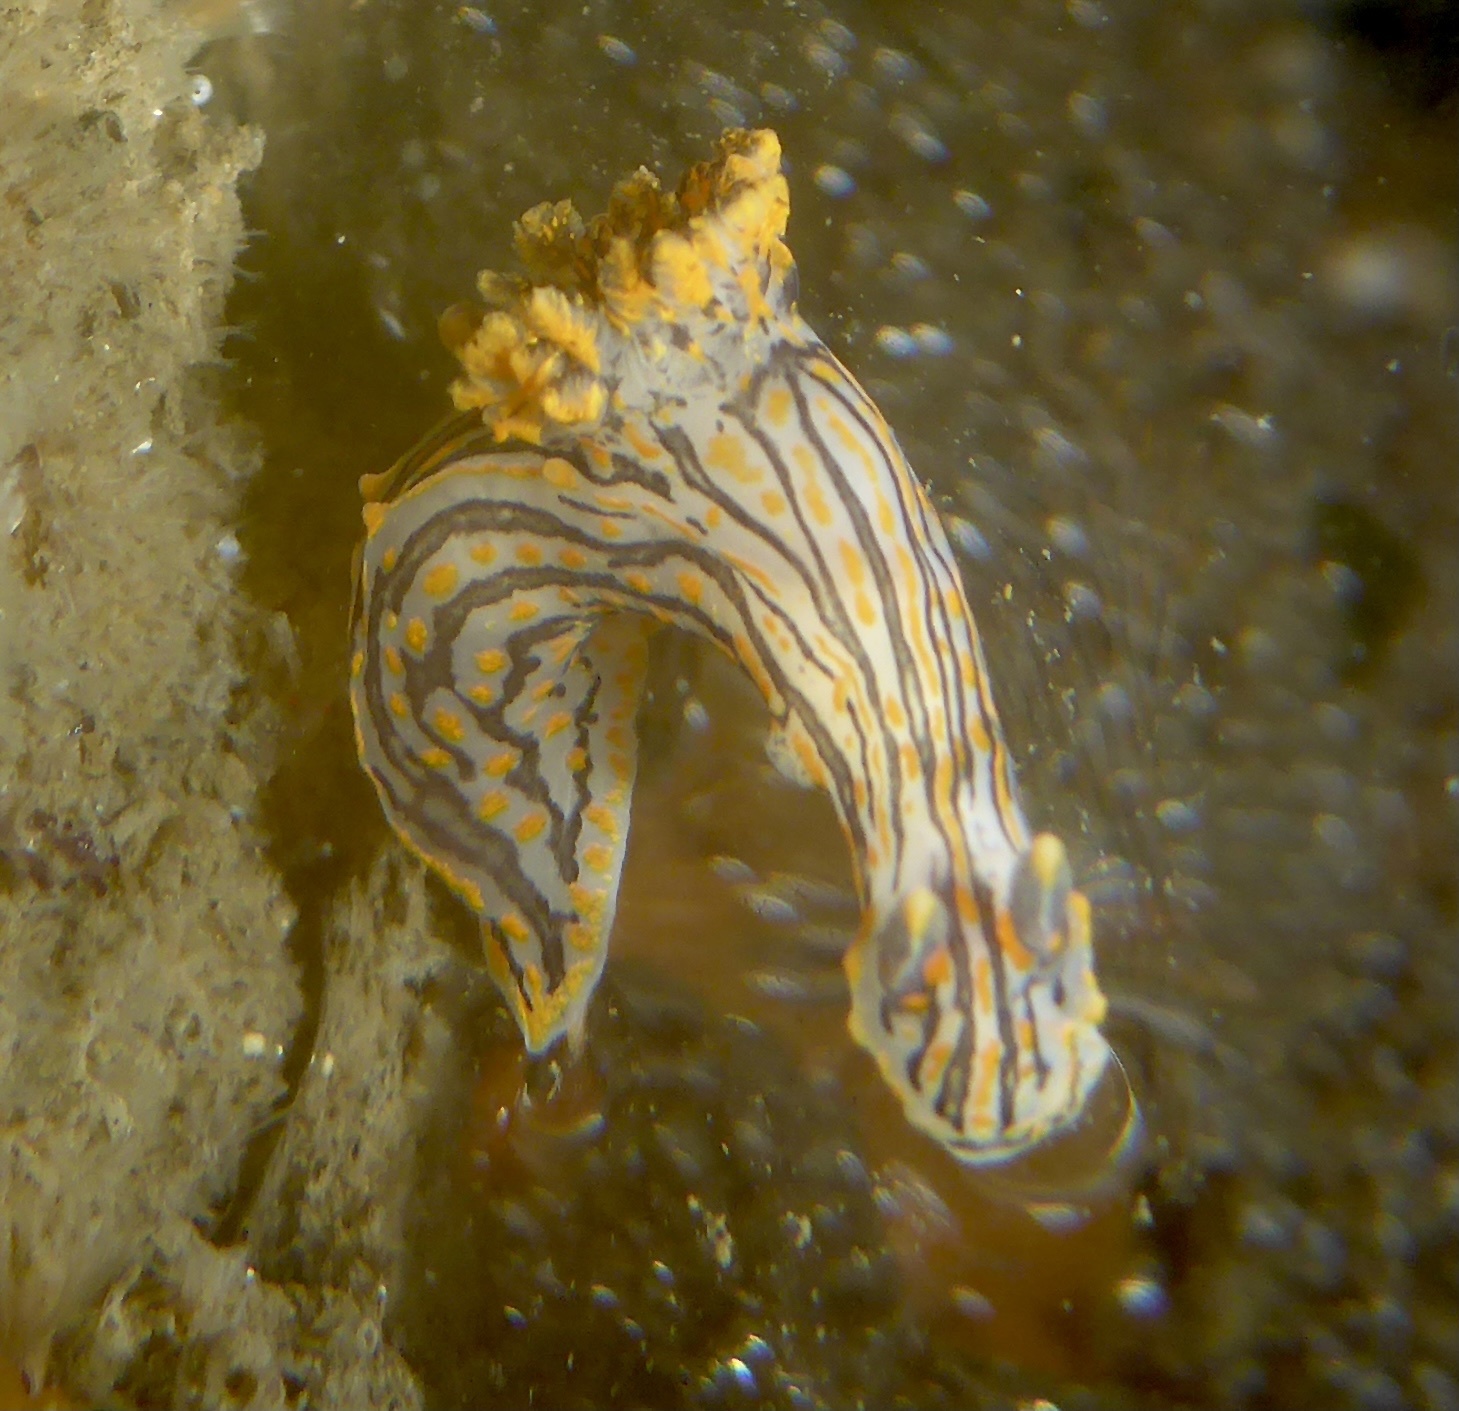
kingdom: Animalia
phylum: Mollusca
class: Gastropoda
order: Nudibranchia
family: Polyceridae
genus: Polycera
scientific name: Polycera atra
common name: Orange-spike polycera
